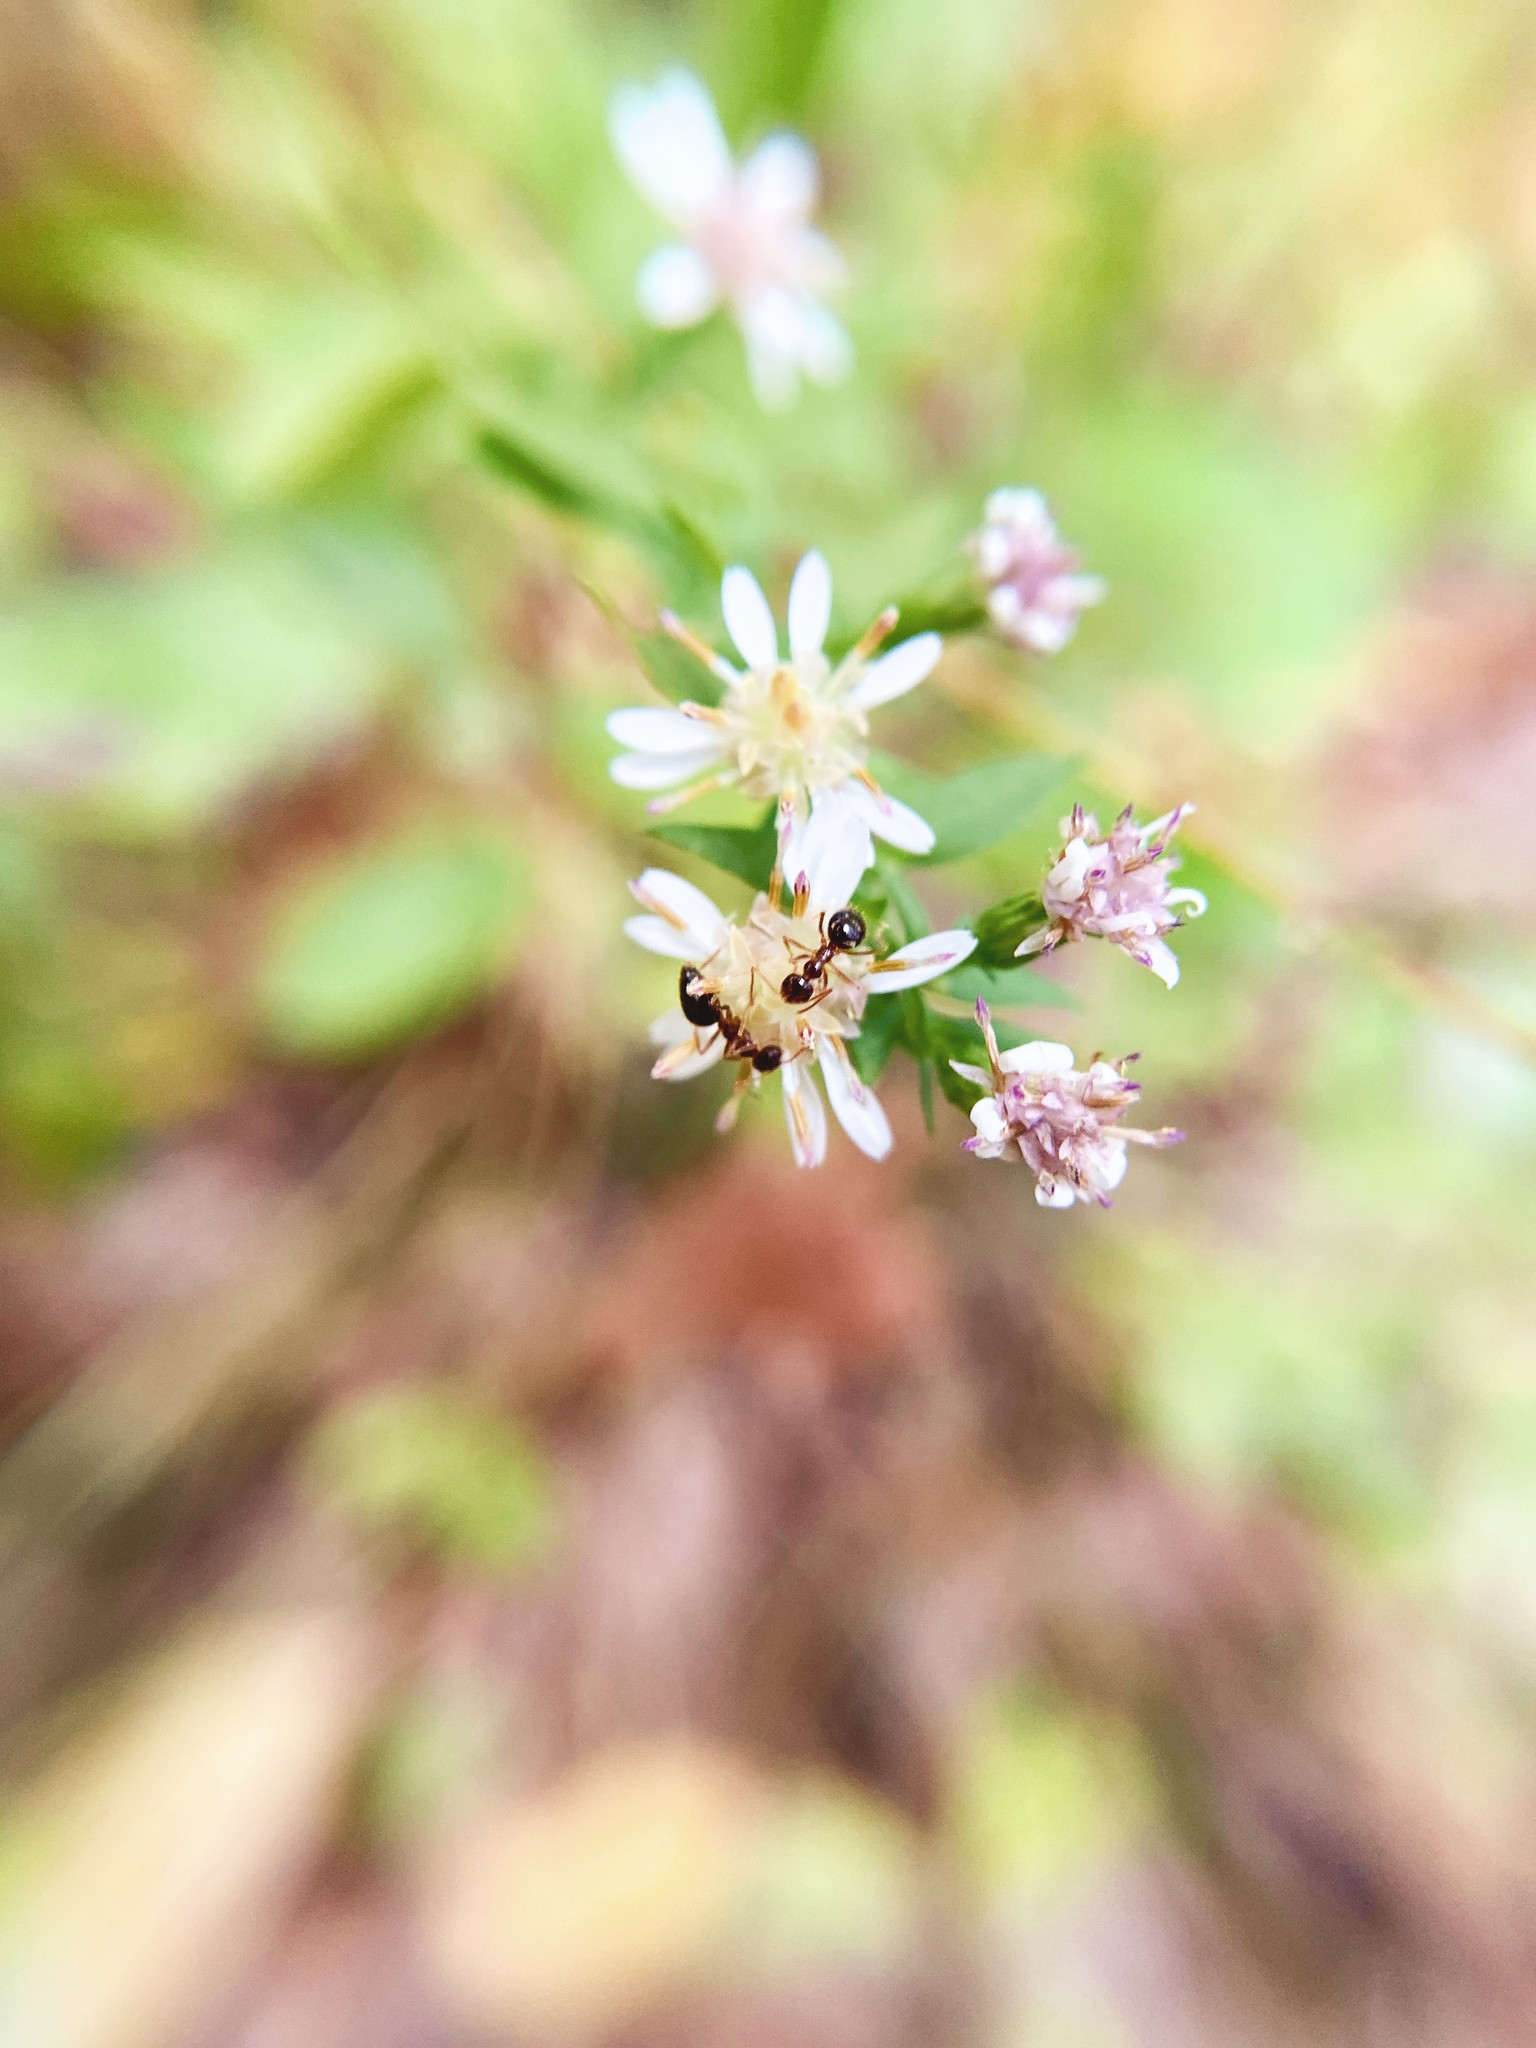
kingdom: Plantae
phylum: Tracheophyta
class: Magnoliopsida
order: Asterales
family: Asteraceae
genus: Symphyotrichum
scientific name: Symphyotrichum lateriflorum
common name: Calico aster
